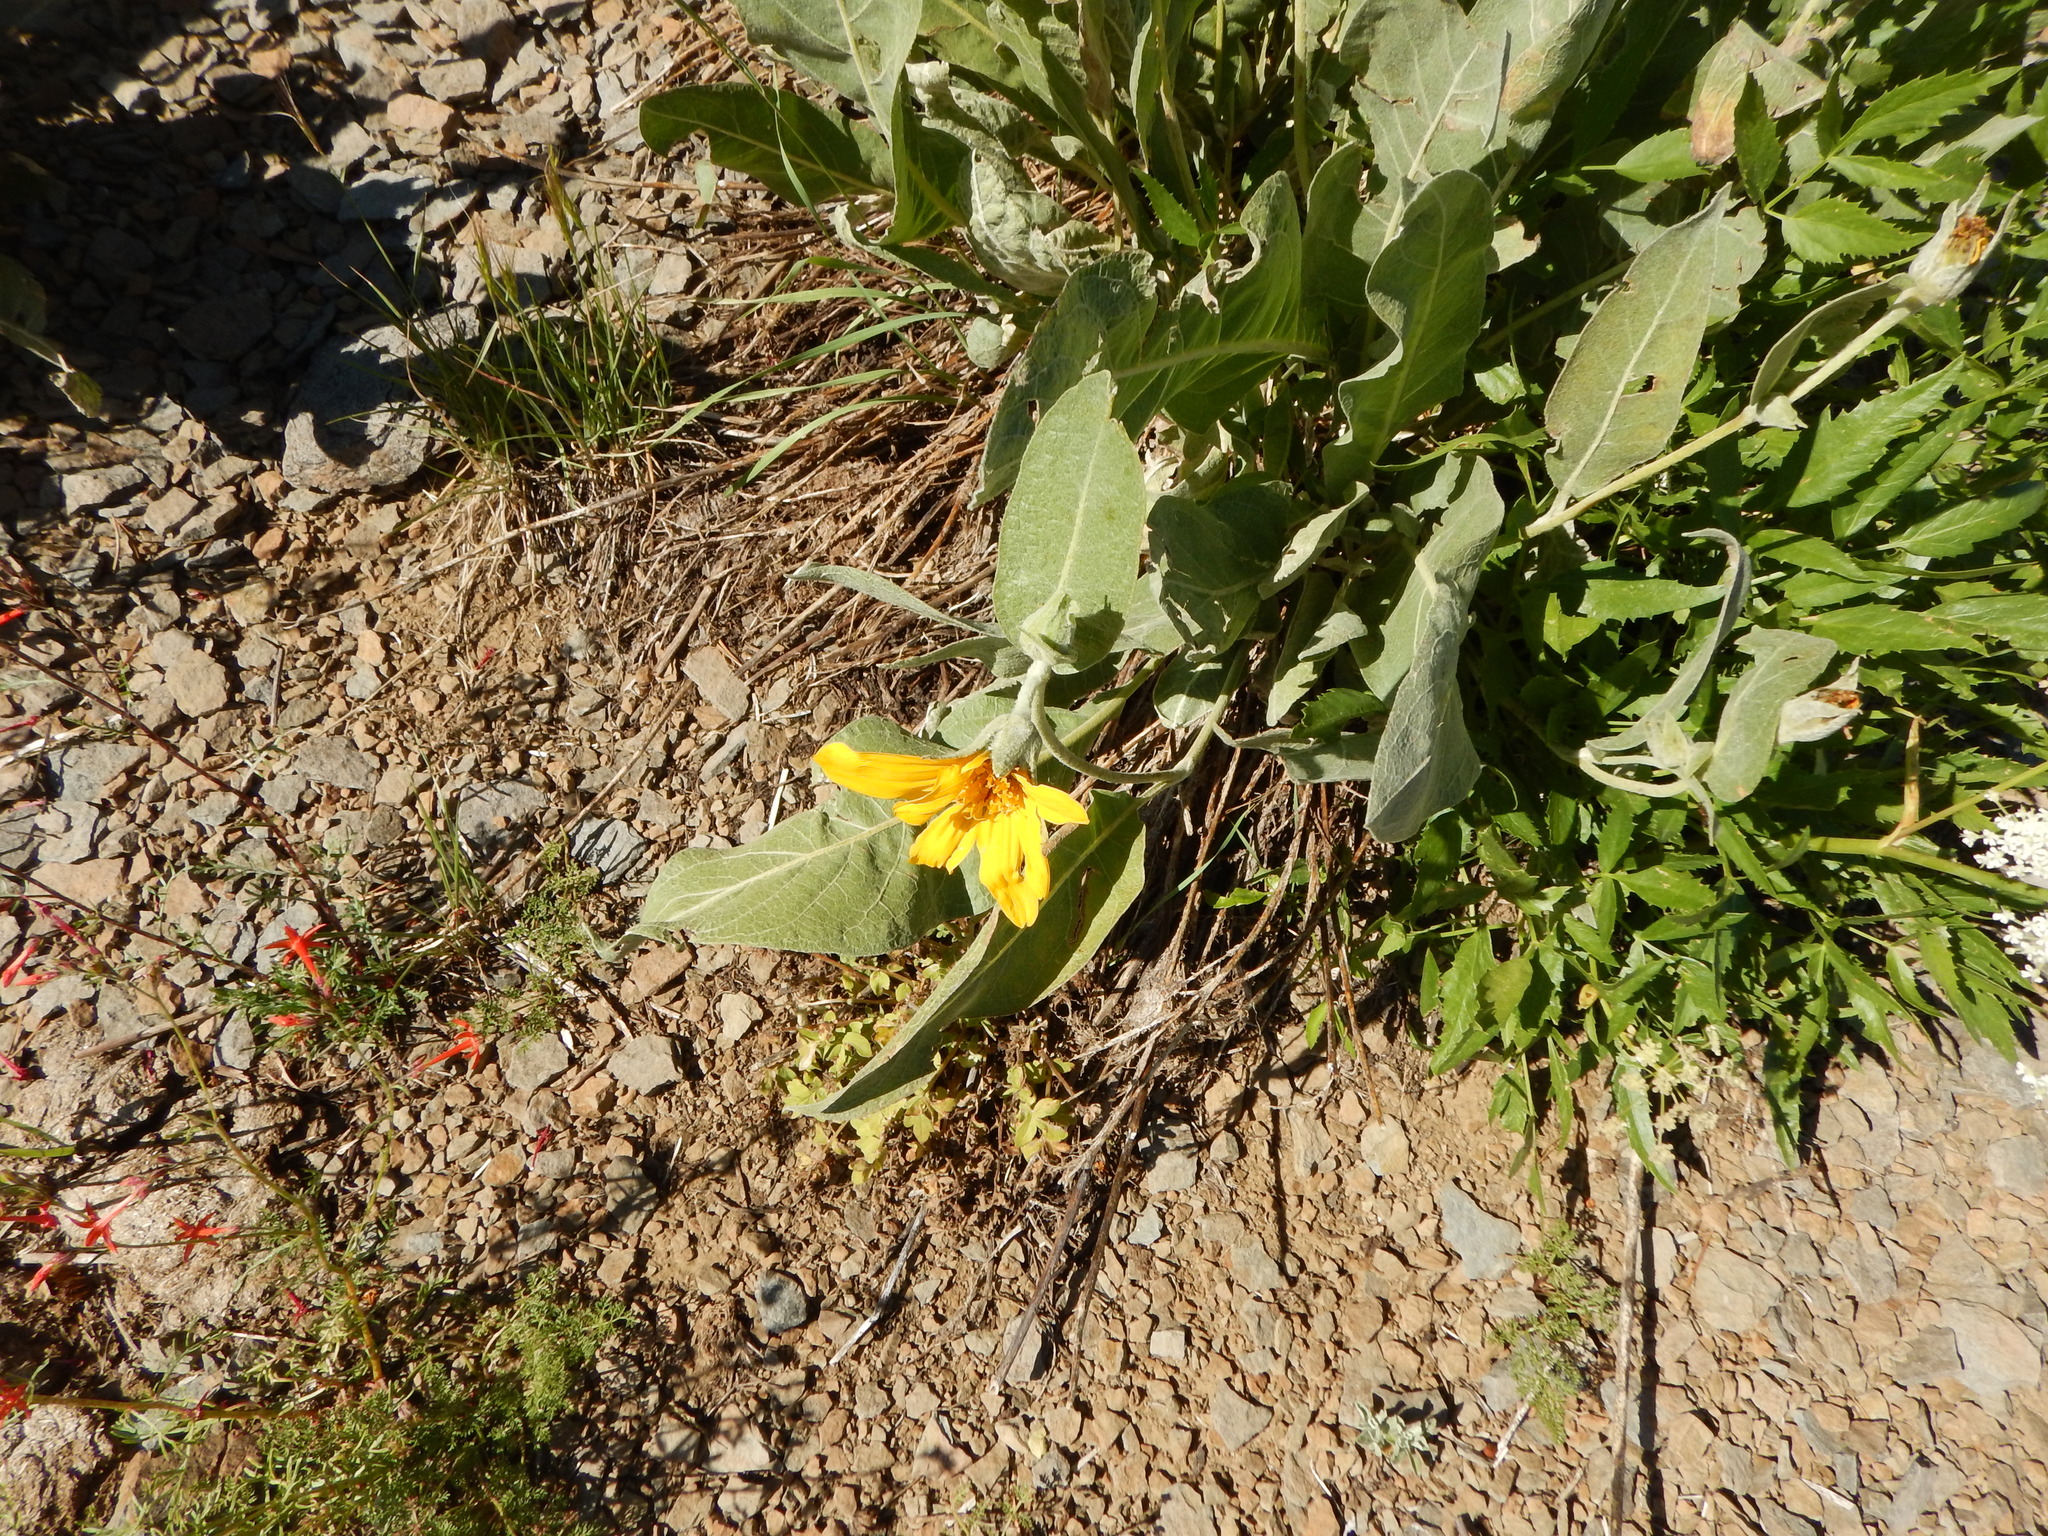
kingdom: Plantae
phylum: Tracheophyta
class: Magnoliopsida
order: Asterales
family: Asteraceae
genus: Wyethia
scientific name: Wyethia mollis
